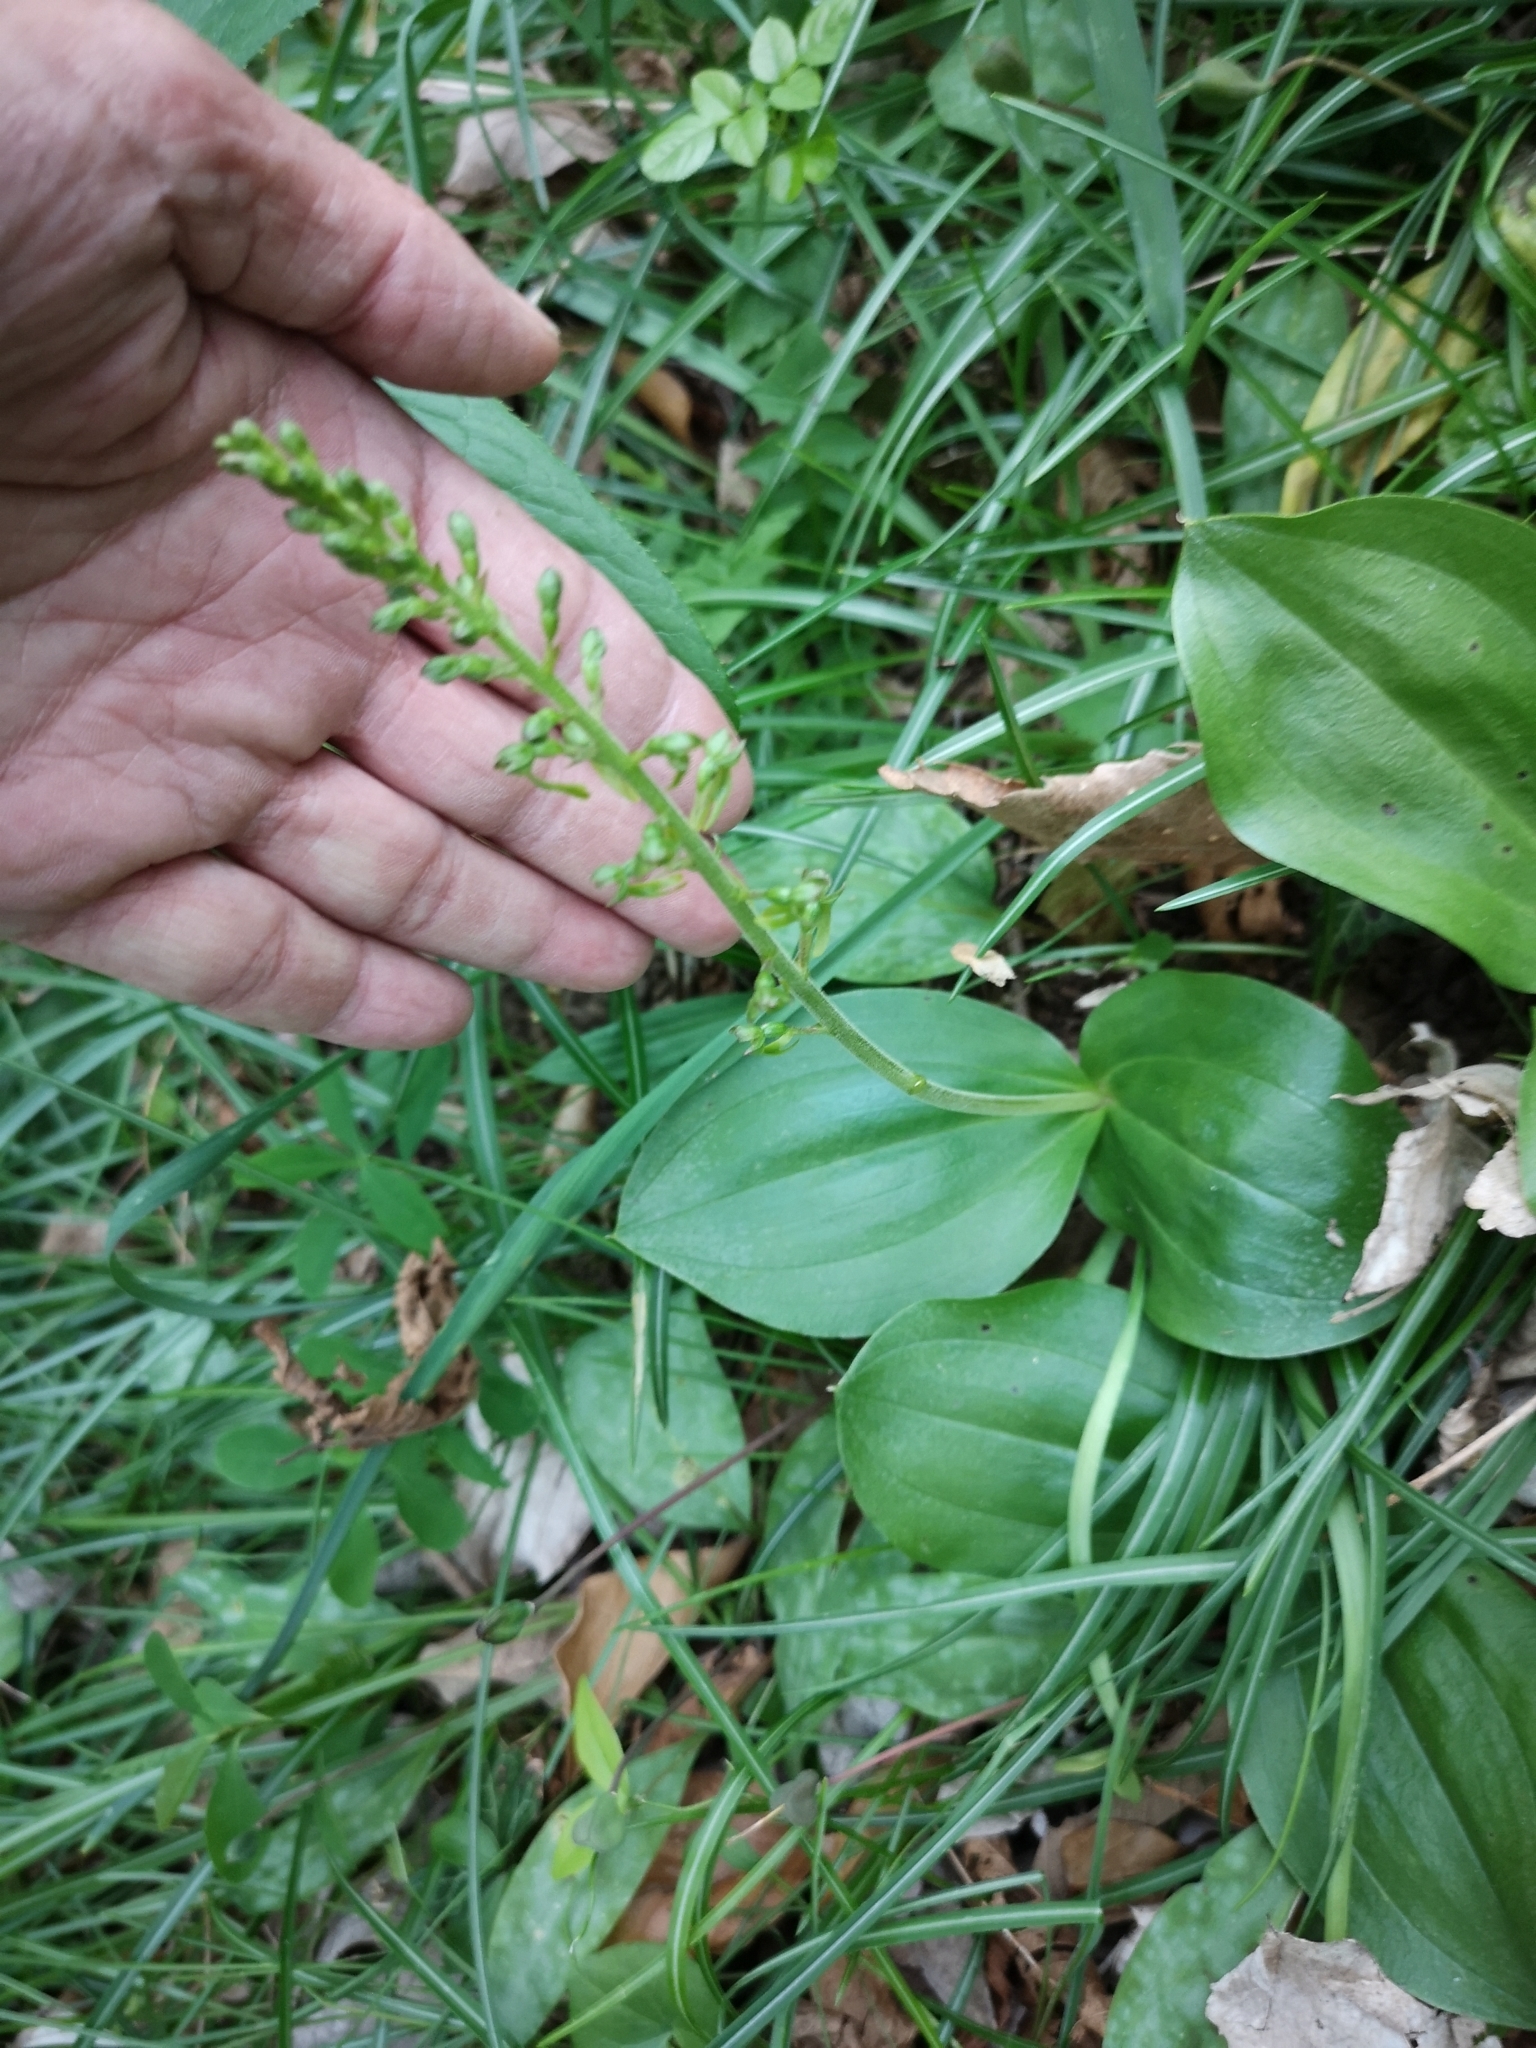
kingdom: Plantae
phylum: Tracheophyta
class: Liliopsida
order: Asparagales
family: Orchidaceae
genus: Neottia
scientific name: Neottia ovata
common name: Common twayblade
